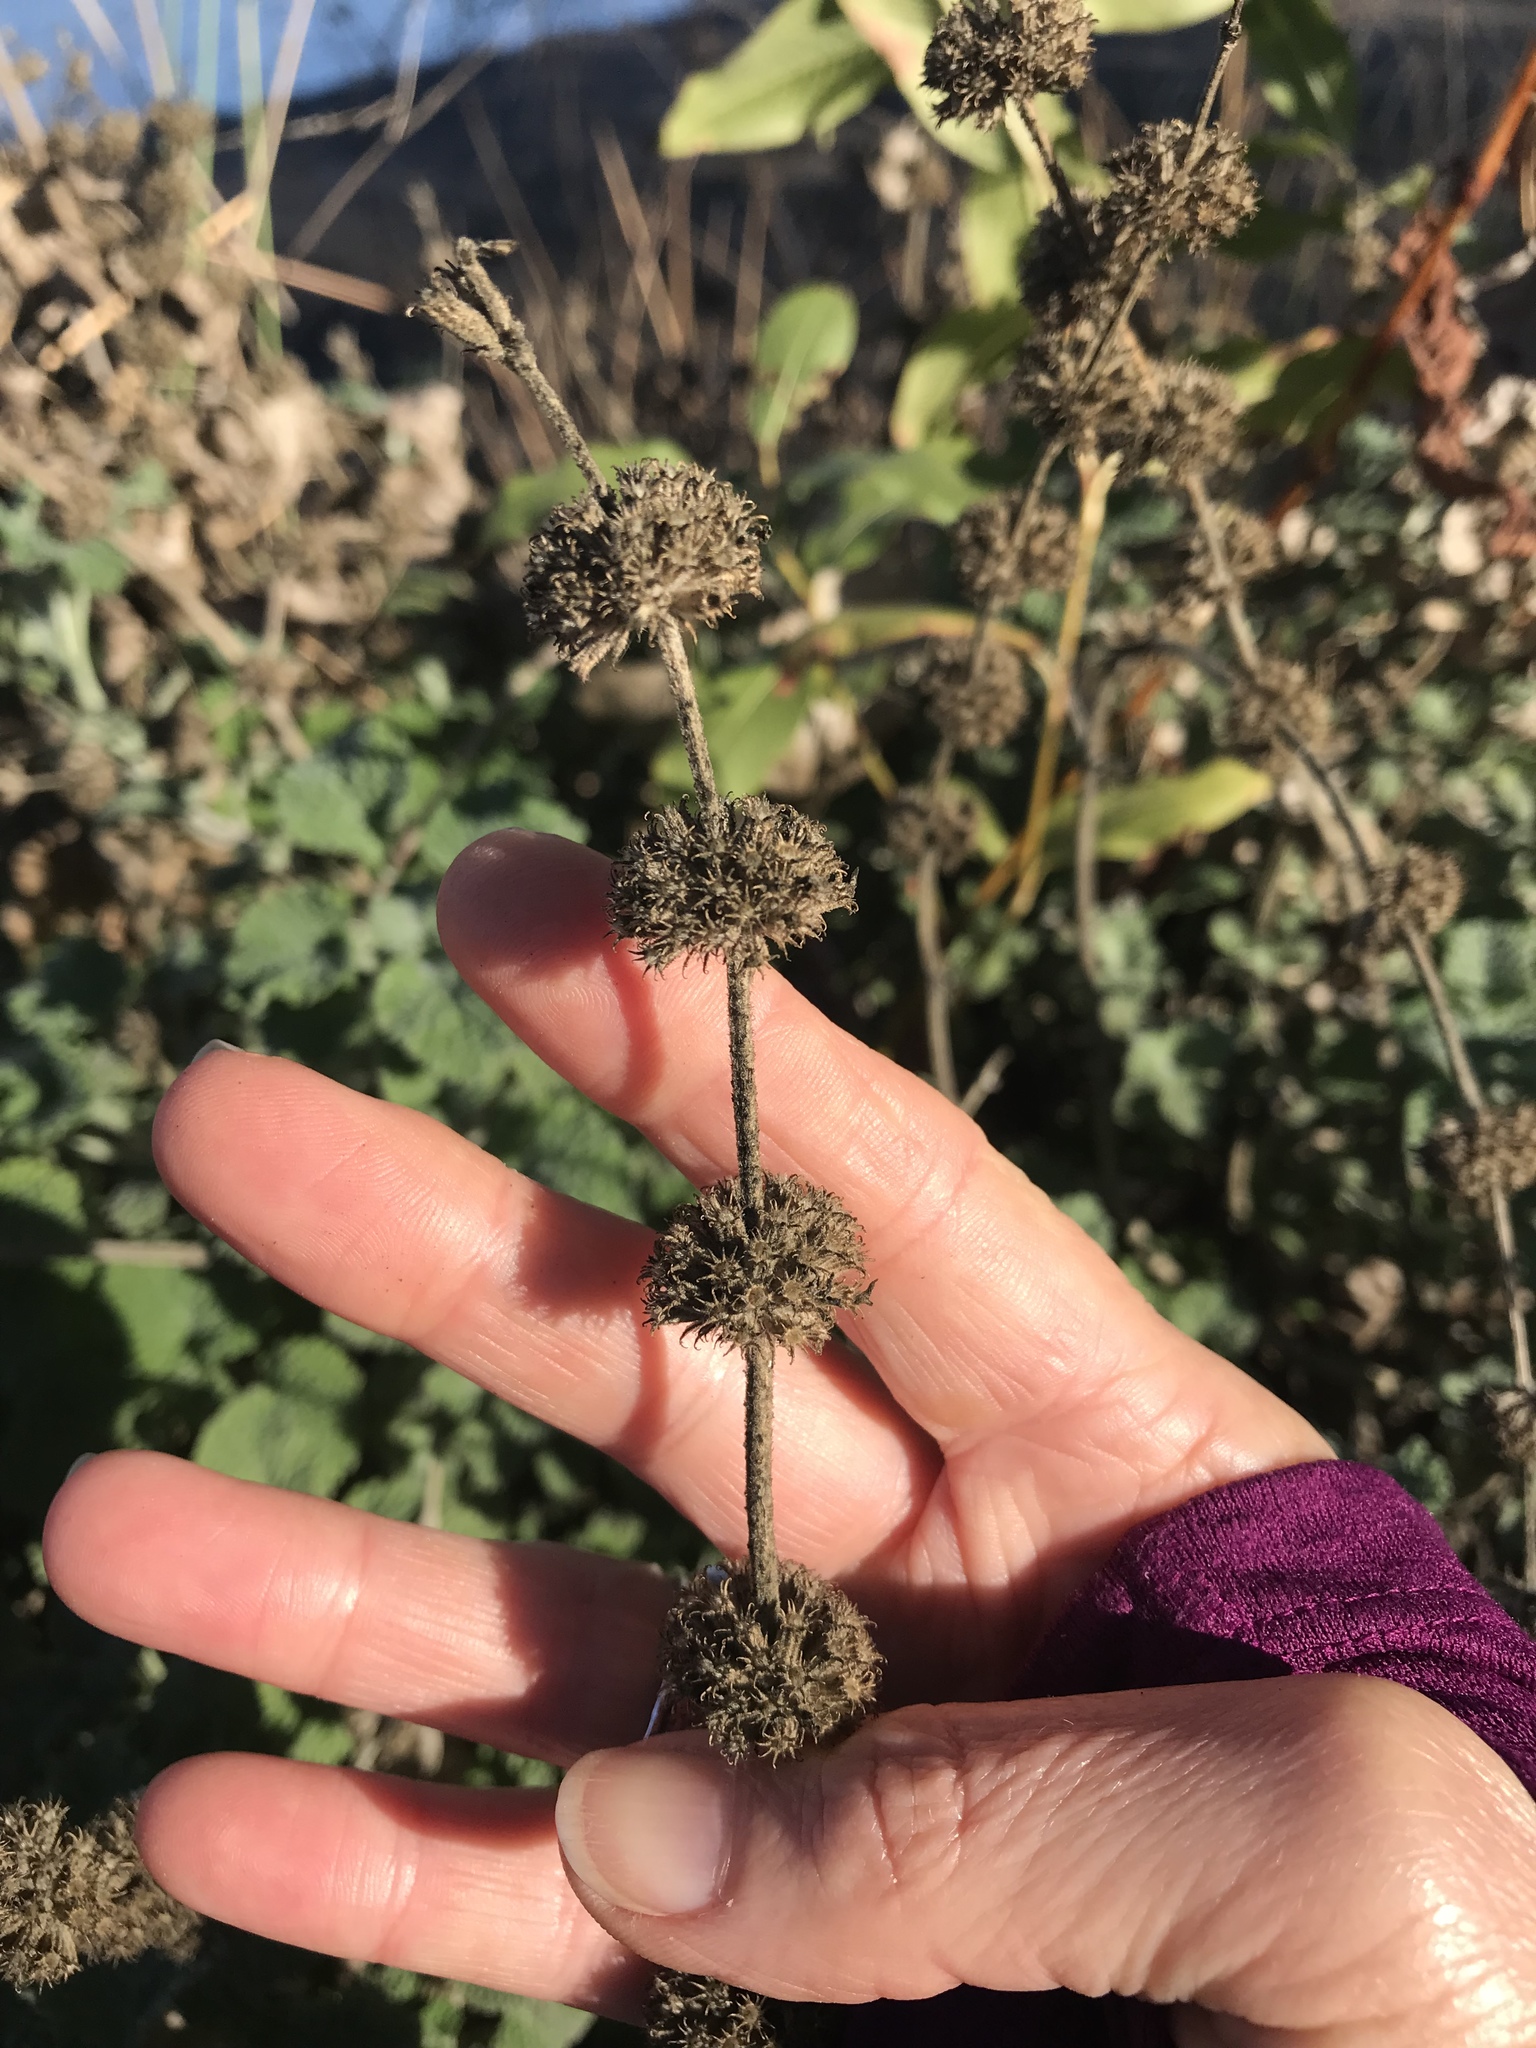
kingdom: Plantae
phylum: Tracheophyta
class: Magnoliopsida
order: Lamiales
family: Lamiaceae
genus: Marrubium
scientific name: Marrubium vulgare
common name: Horehound
